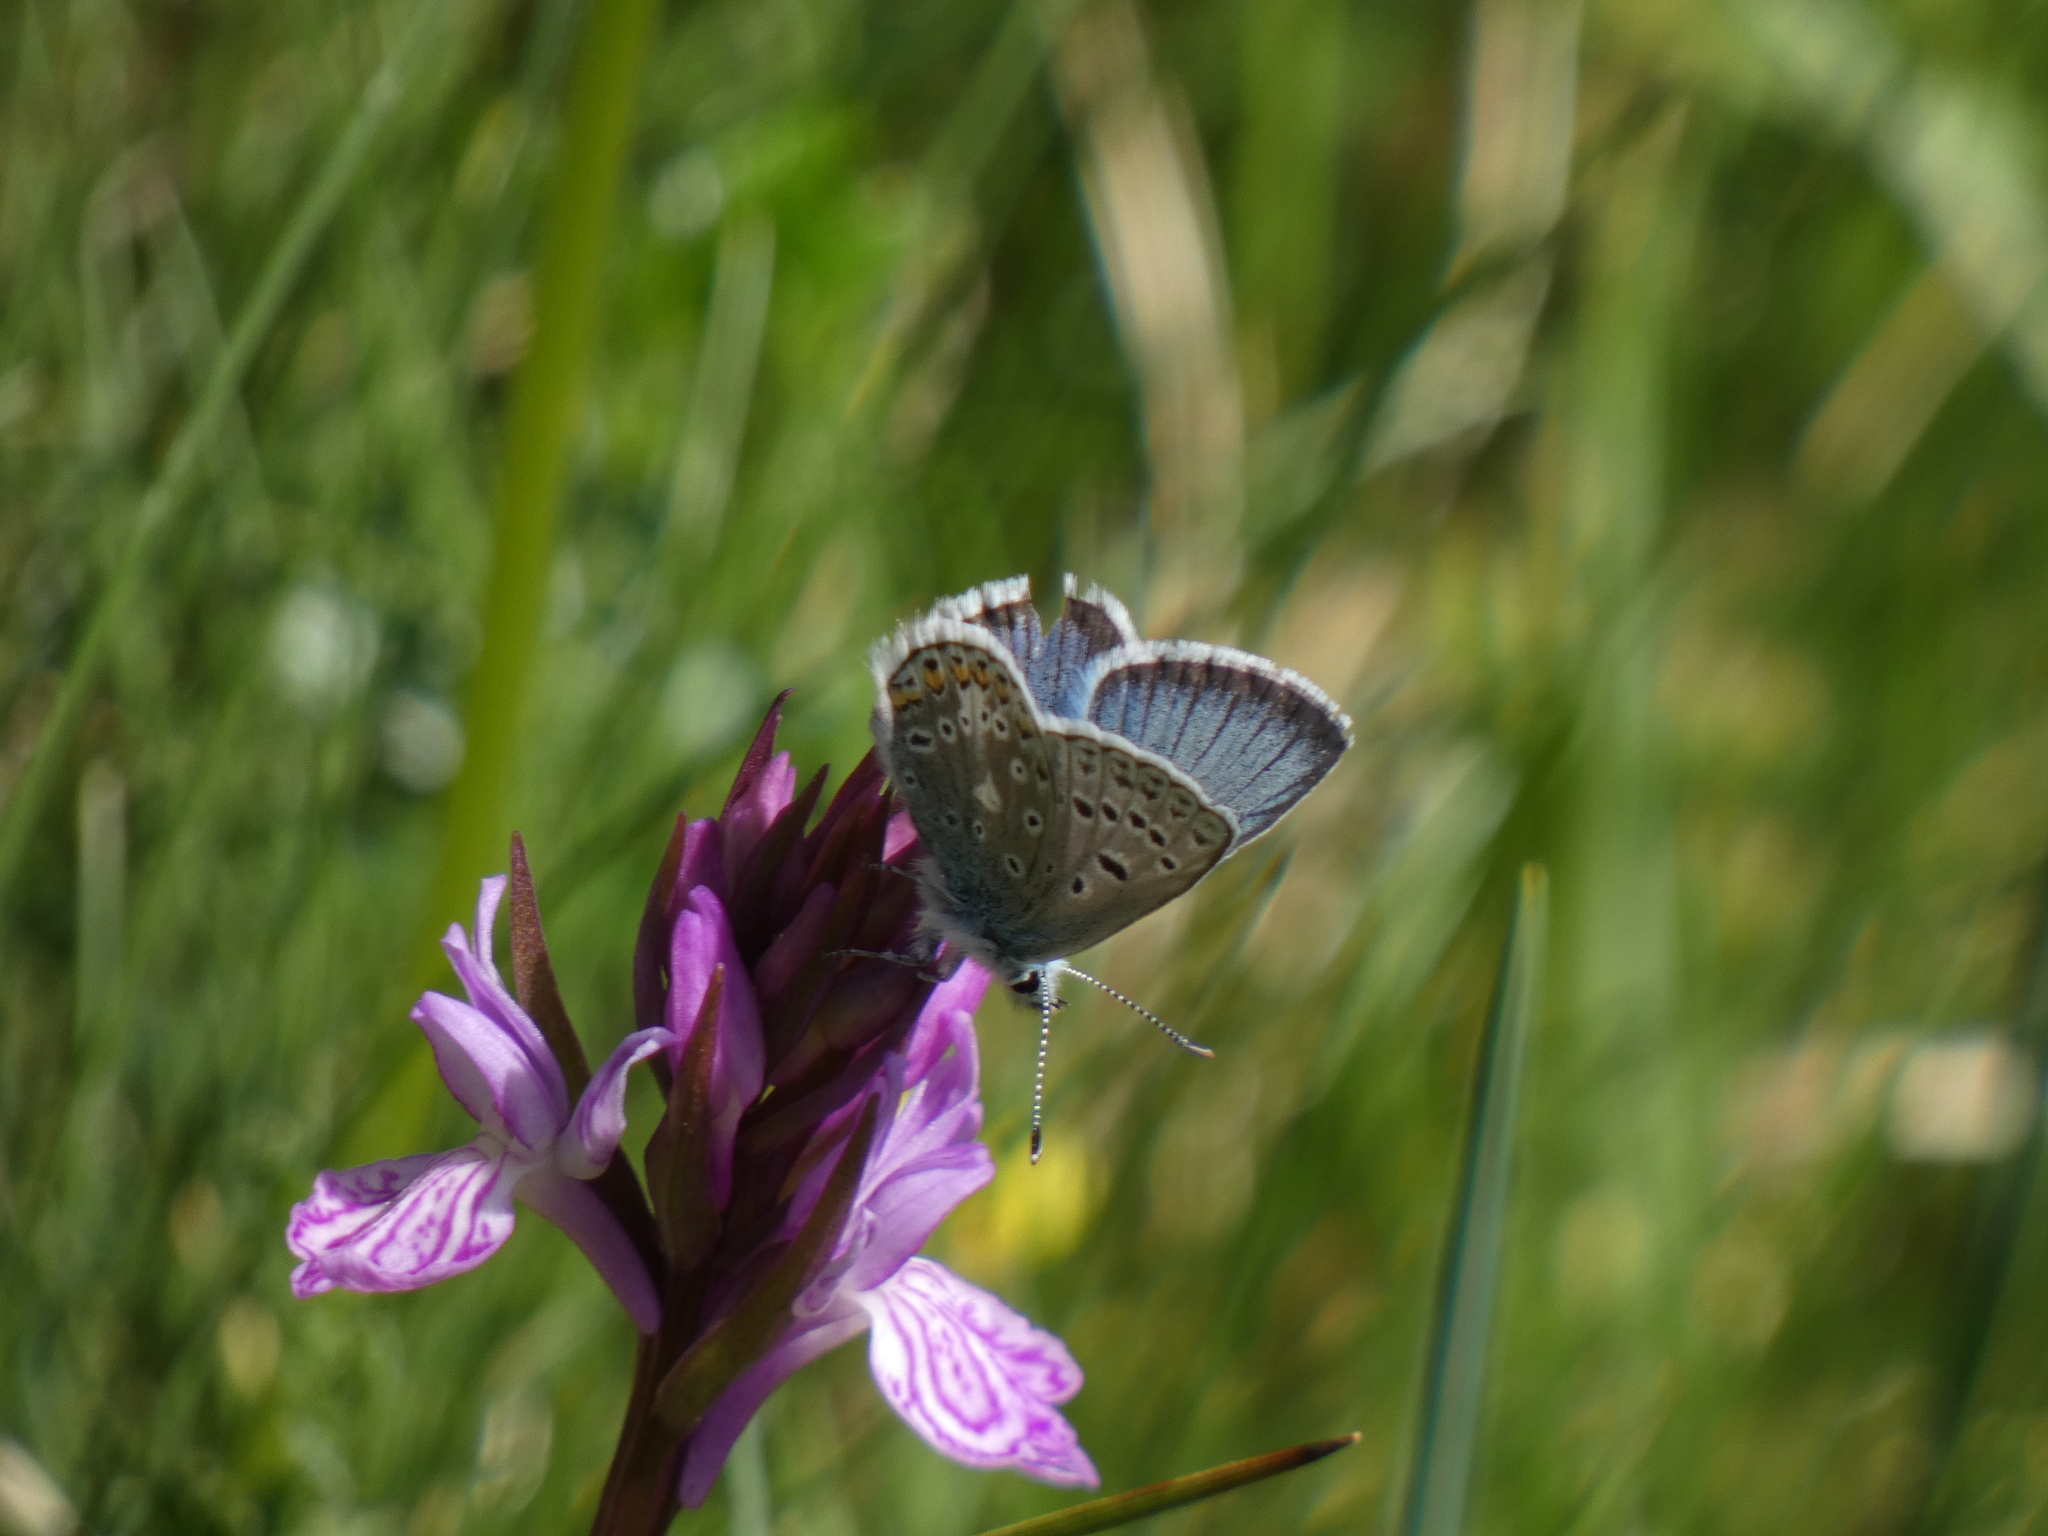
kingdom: Animalia
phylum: Arthropoda
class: Insecta
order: Lepidoptera
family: Lycaenidae
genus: Polyommatus
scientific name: Polyommatus eros
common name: Eros blue
